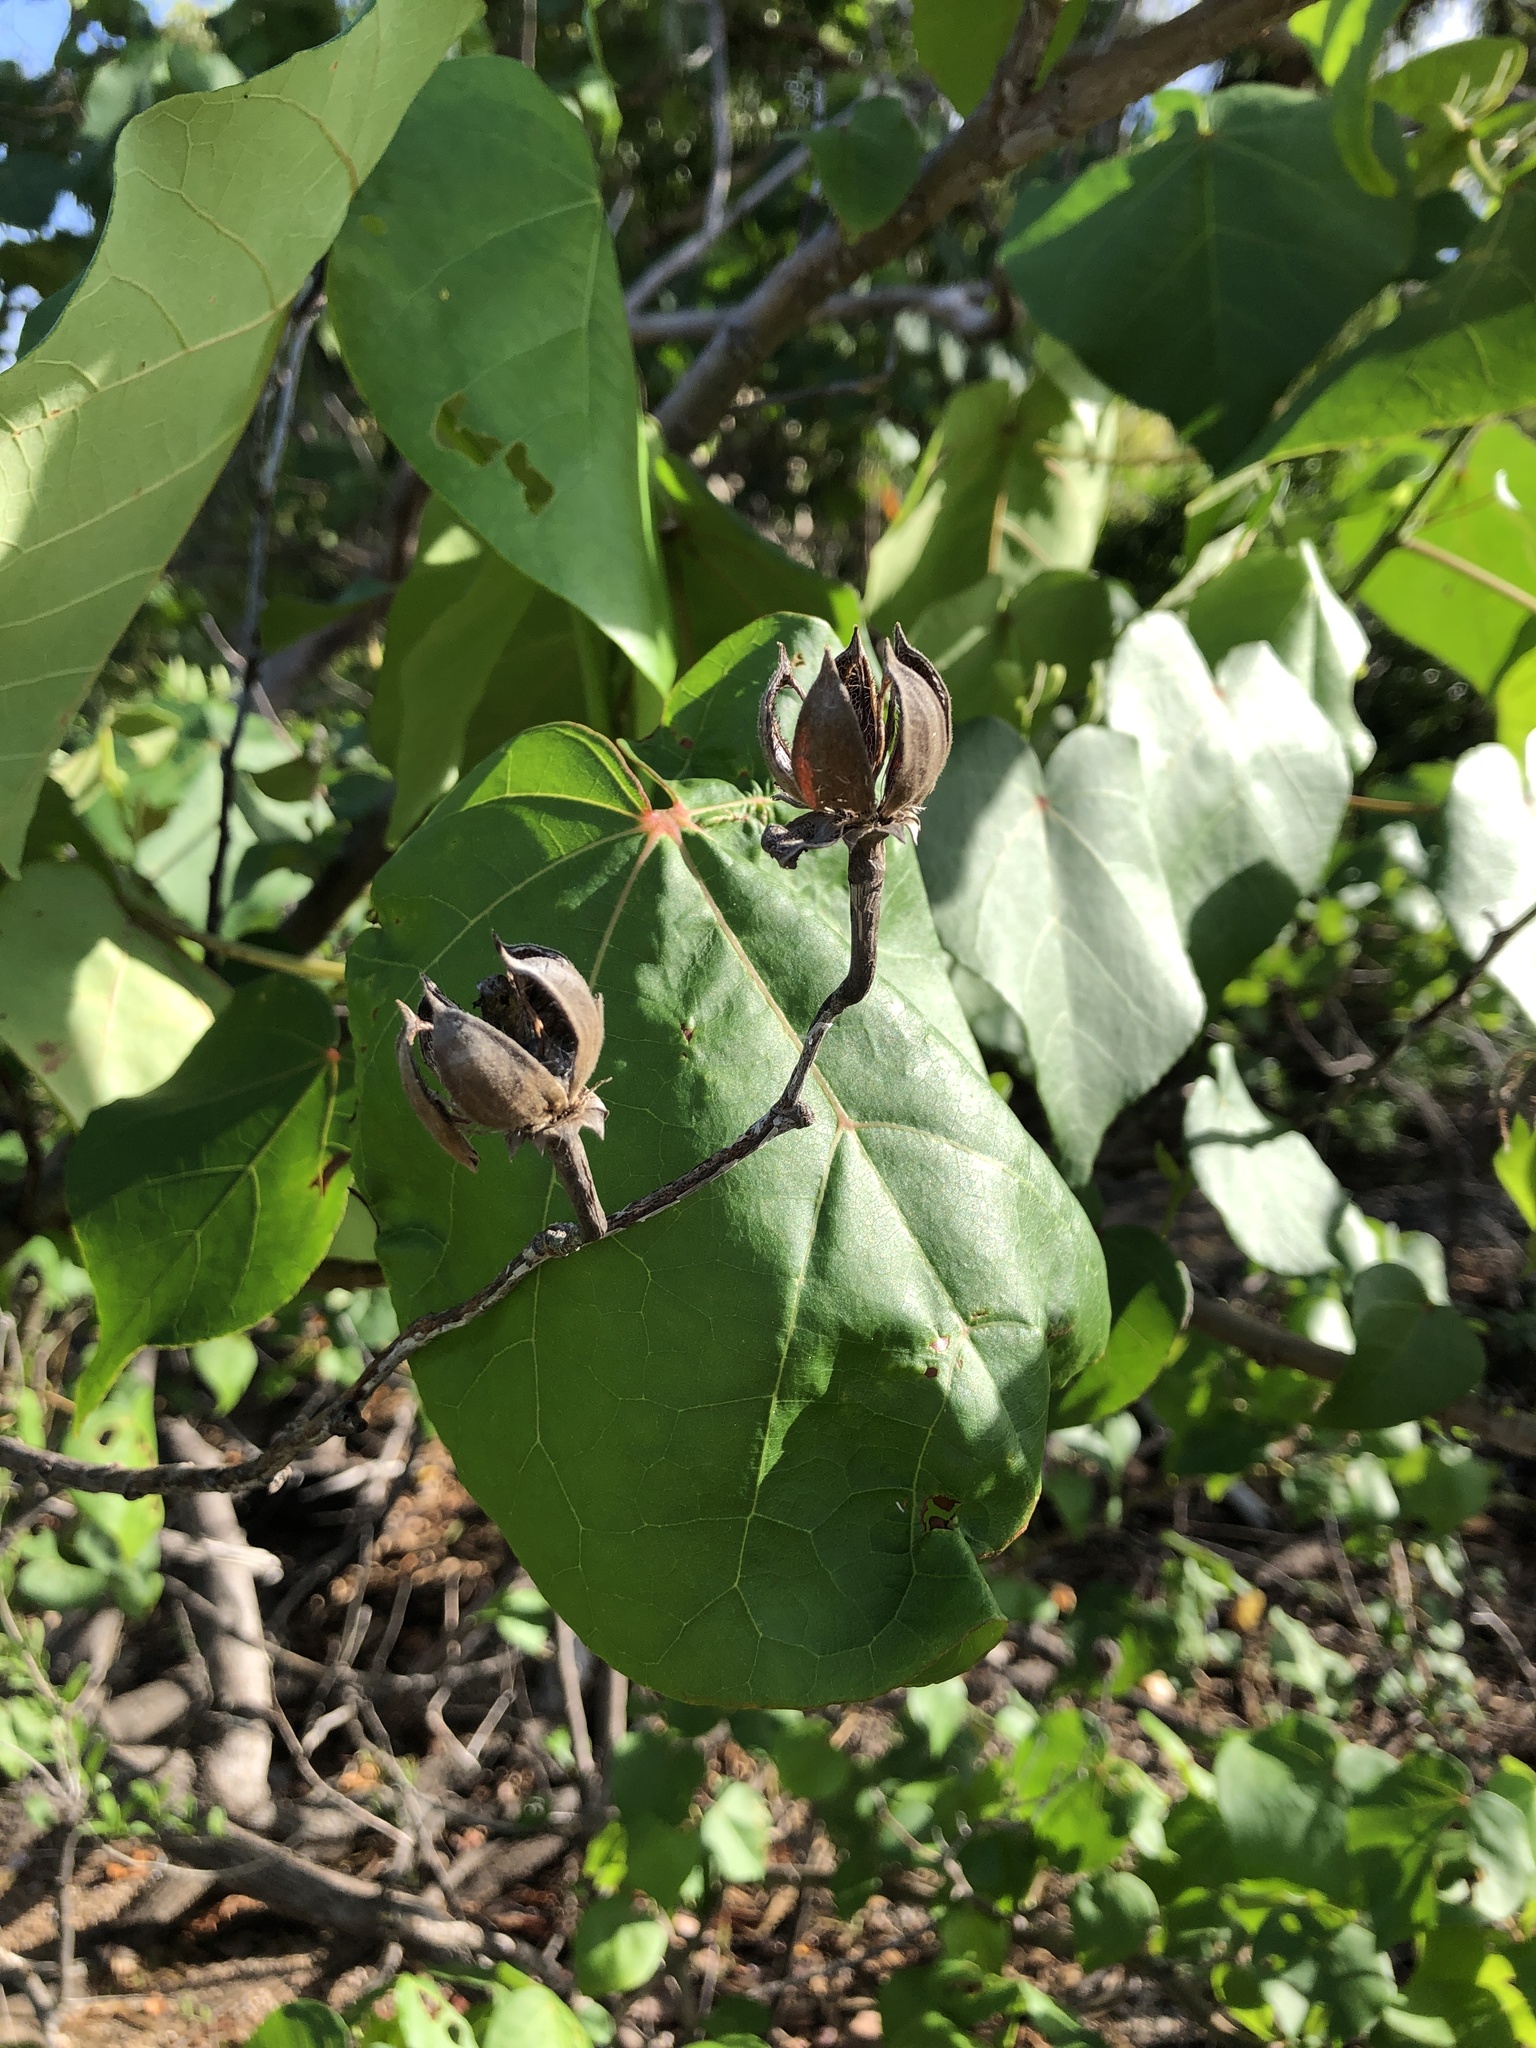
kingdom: Plantae
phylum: Tracheophyta
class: Magnoliopsida
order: Malvales
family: Malvaceae
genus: Talipariti
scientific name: Talipariti tiliaceum
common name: Sea hibiscus
